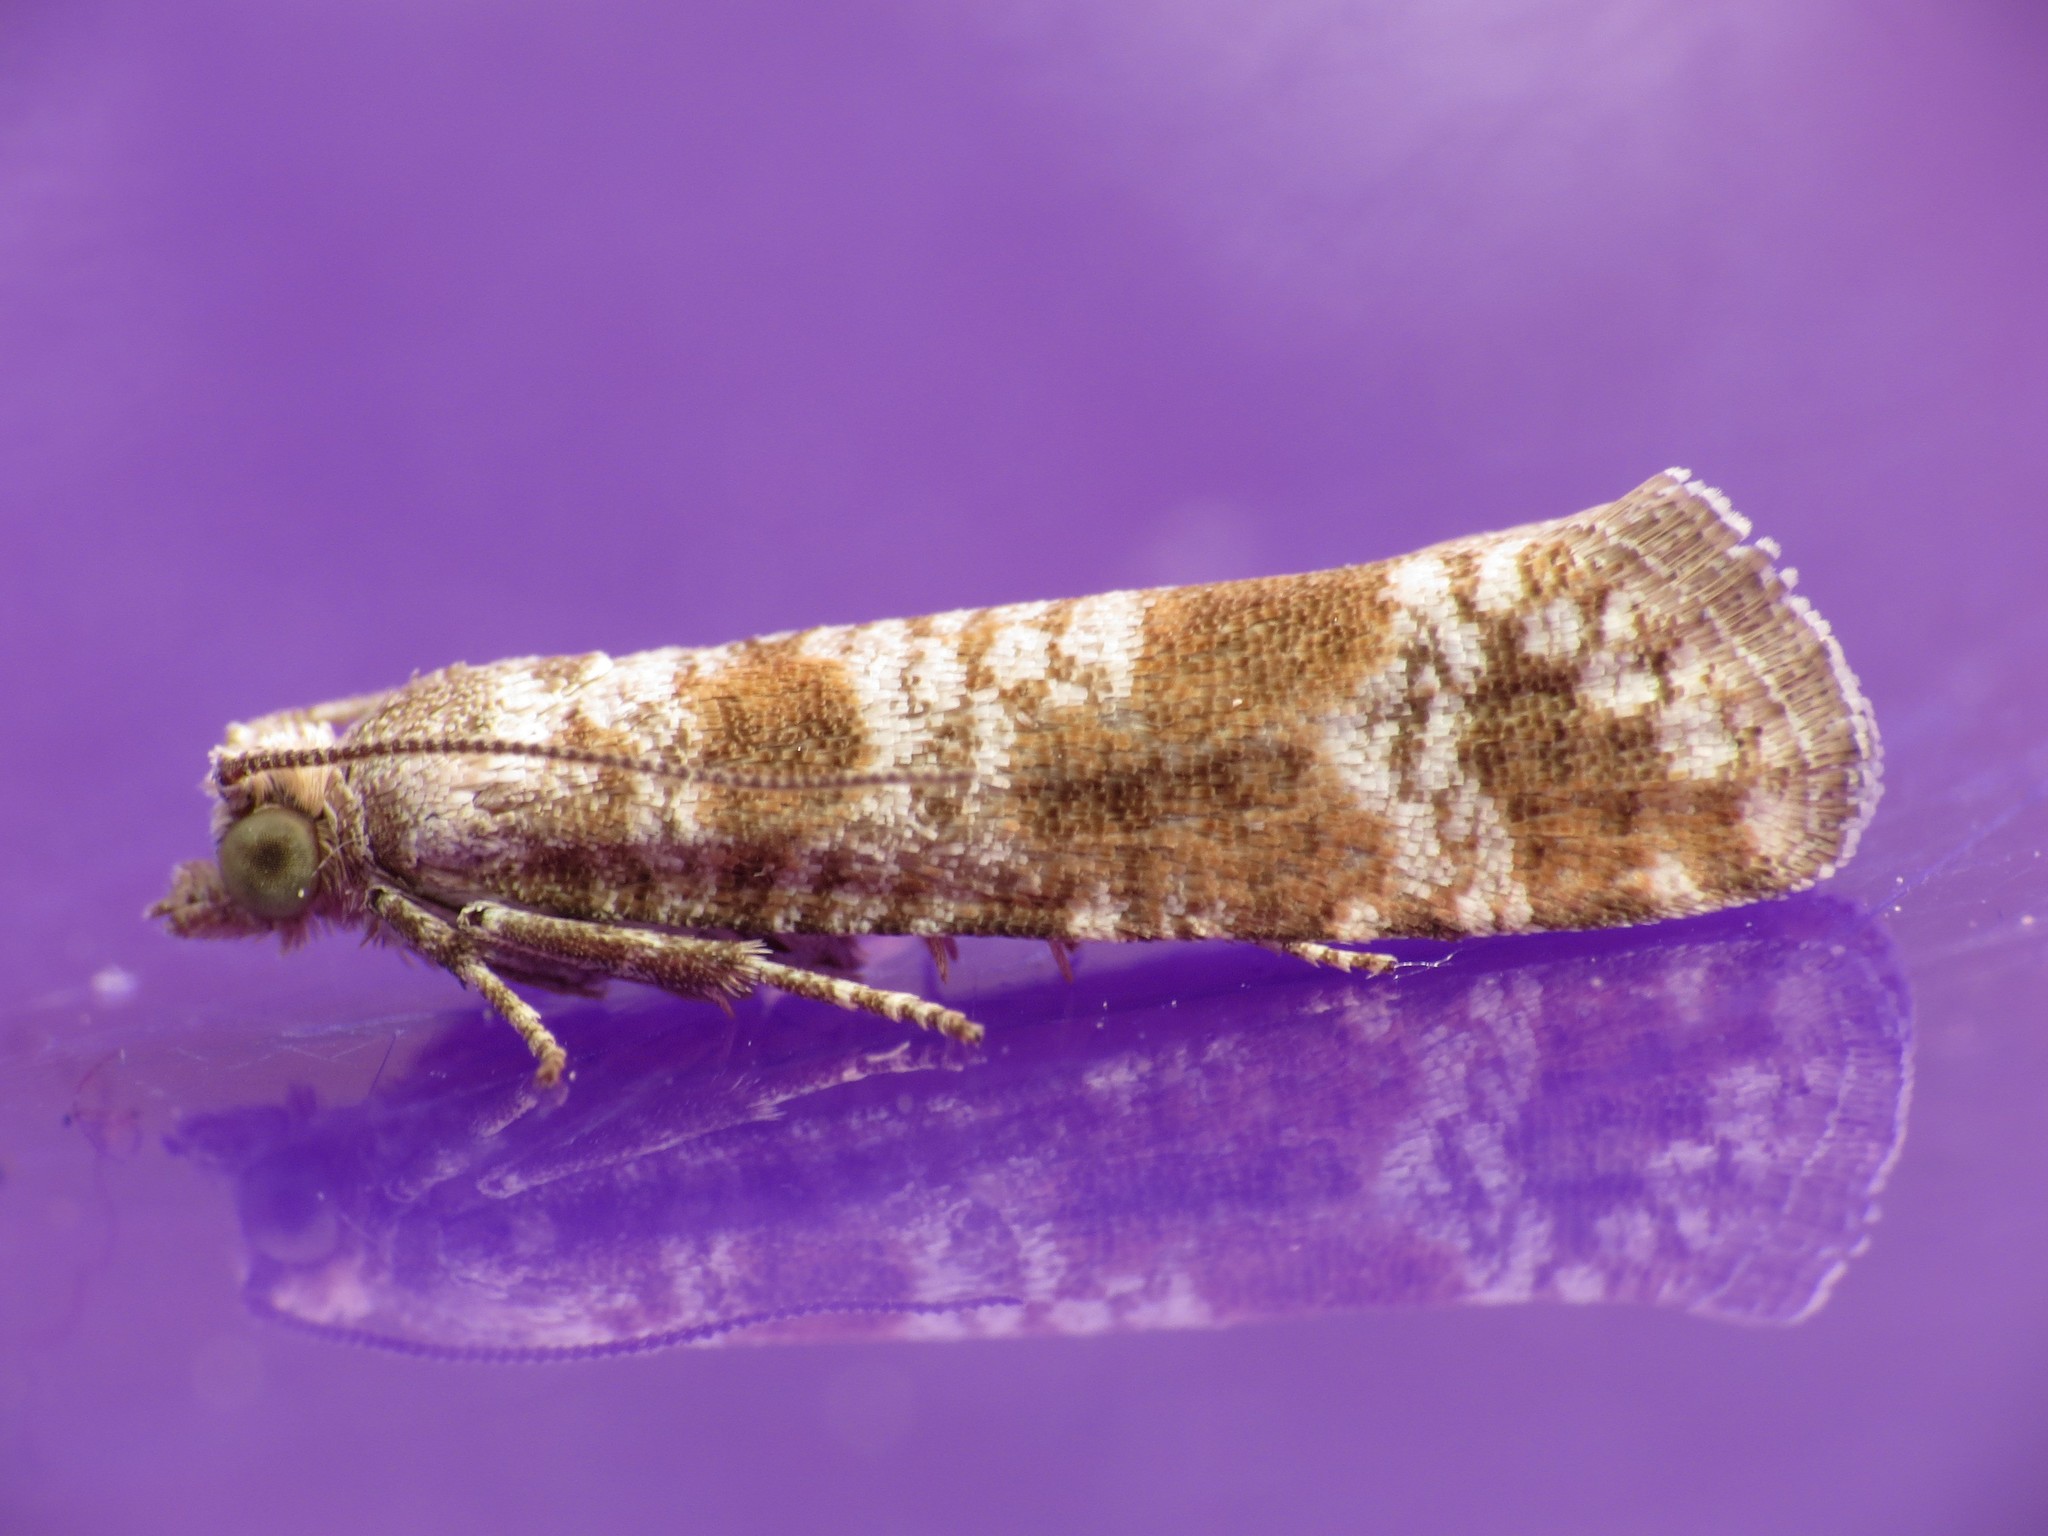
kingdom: Animalia
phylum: Arthropoda
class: Insecta
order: Lepidoptera
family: Tortricidae
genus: Rhyacionia
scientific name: Rhyacionia pinivorana
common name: Spotted shoot moth
